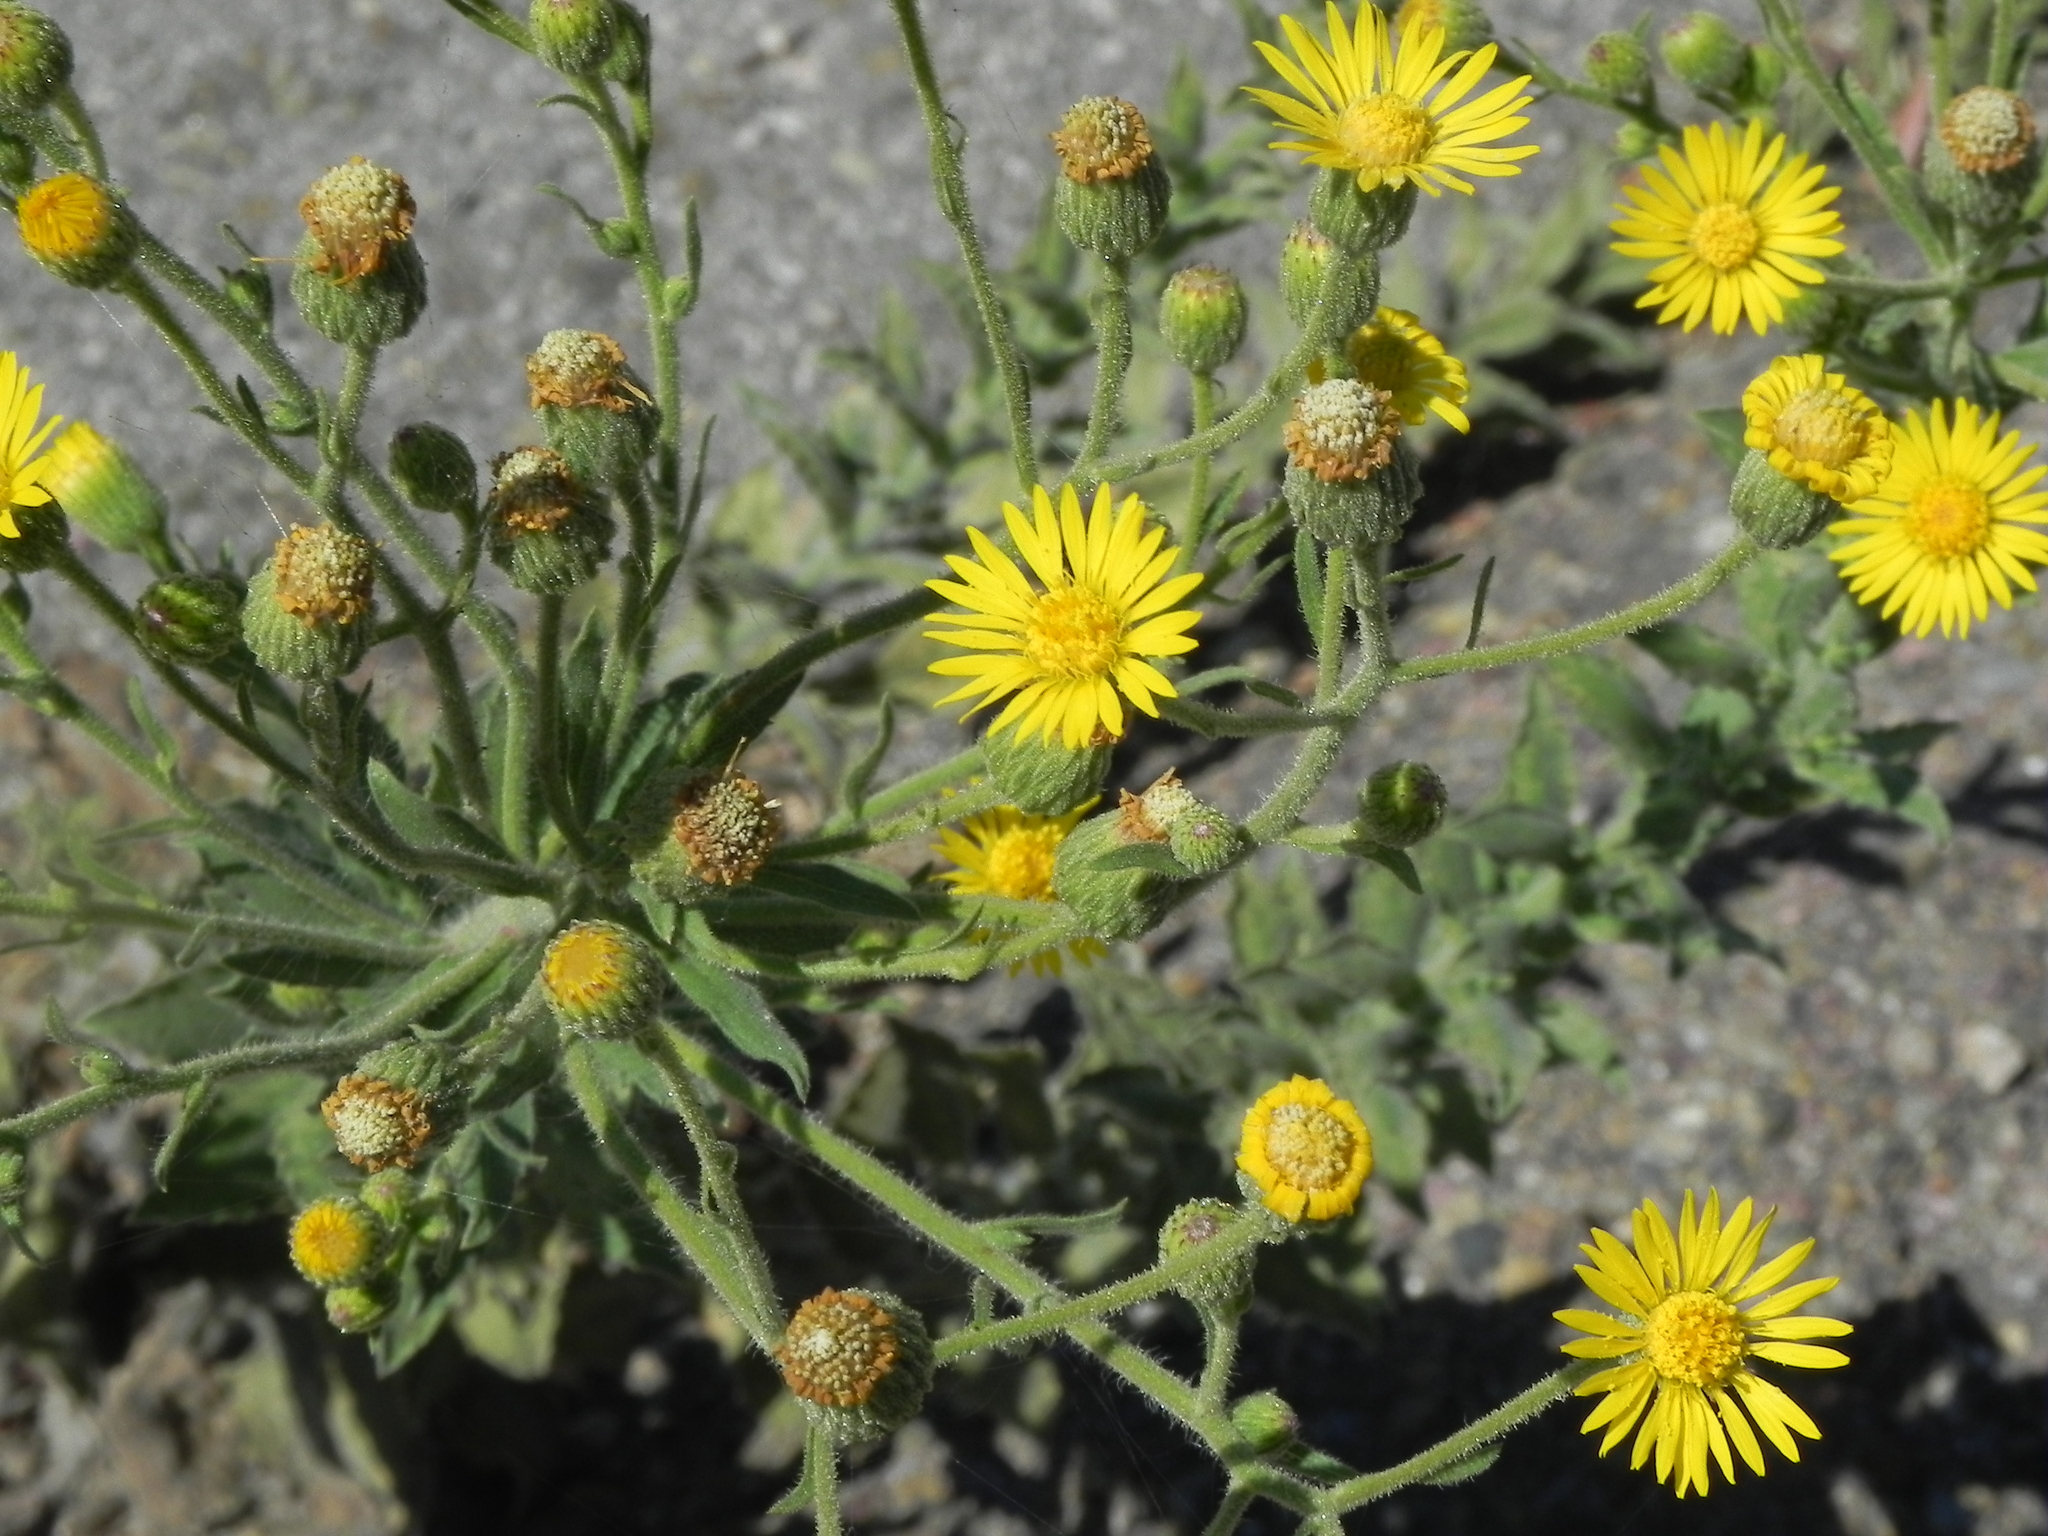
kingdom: Plantae
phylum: Tracheophyta
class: Magnoliopsida
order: Asterales
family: Asteraceae
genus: Heterotheca
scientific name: Heterotheca grandiflora
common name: Telegraphweed
